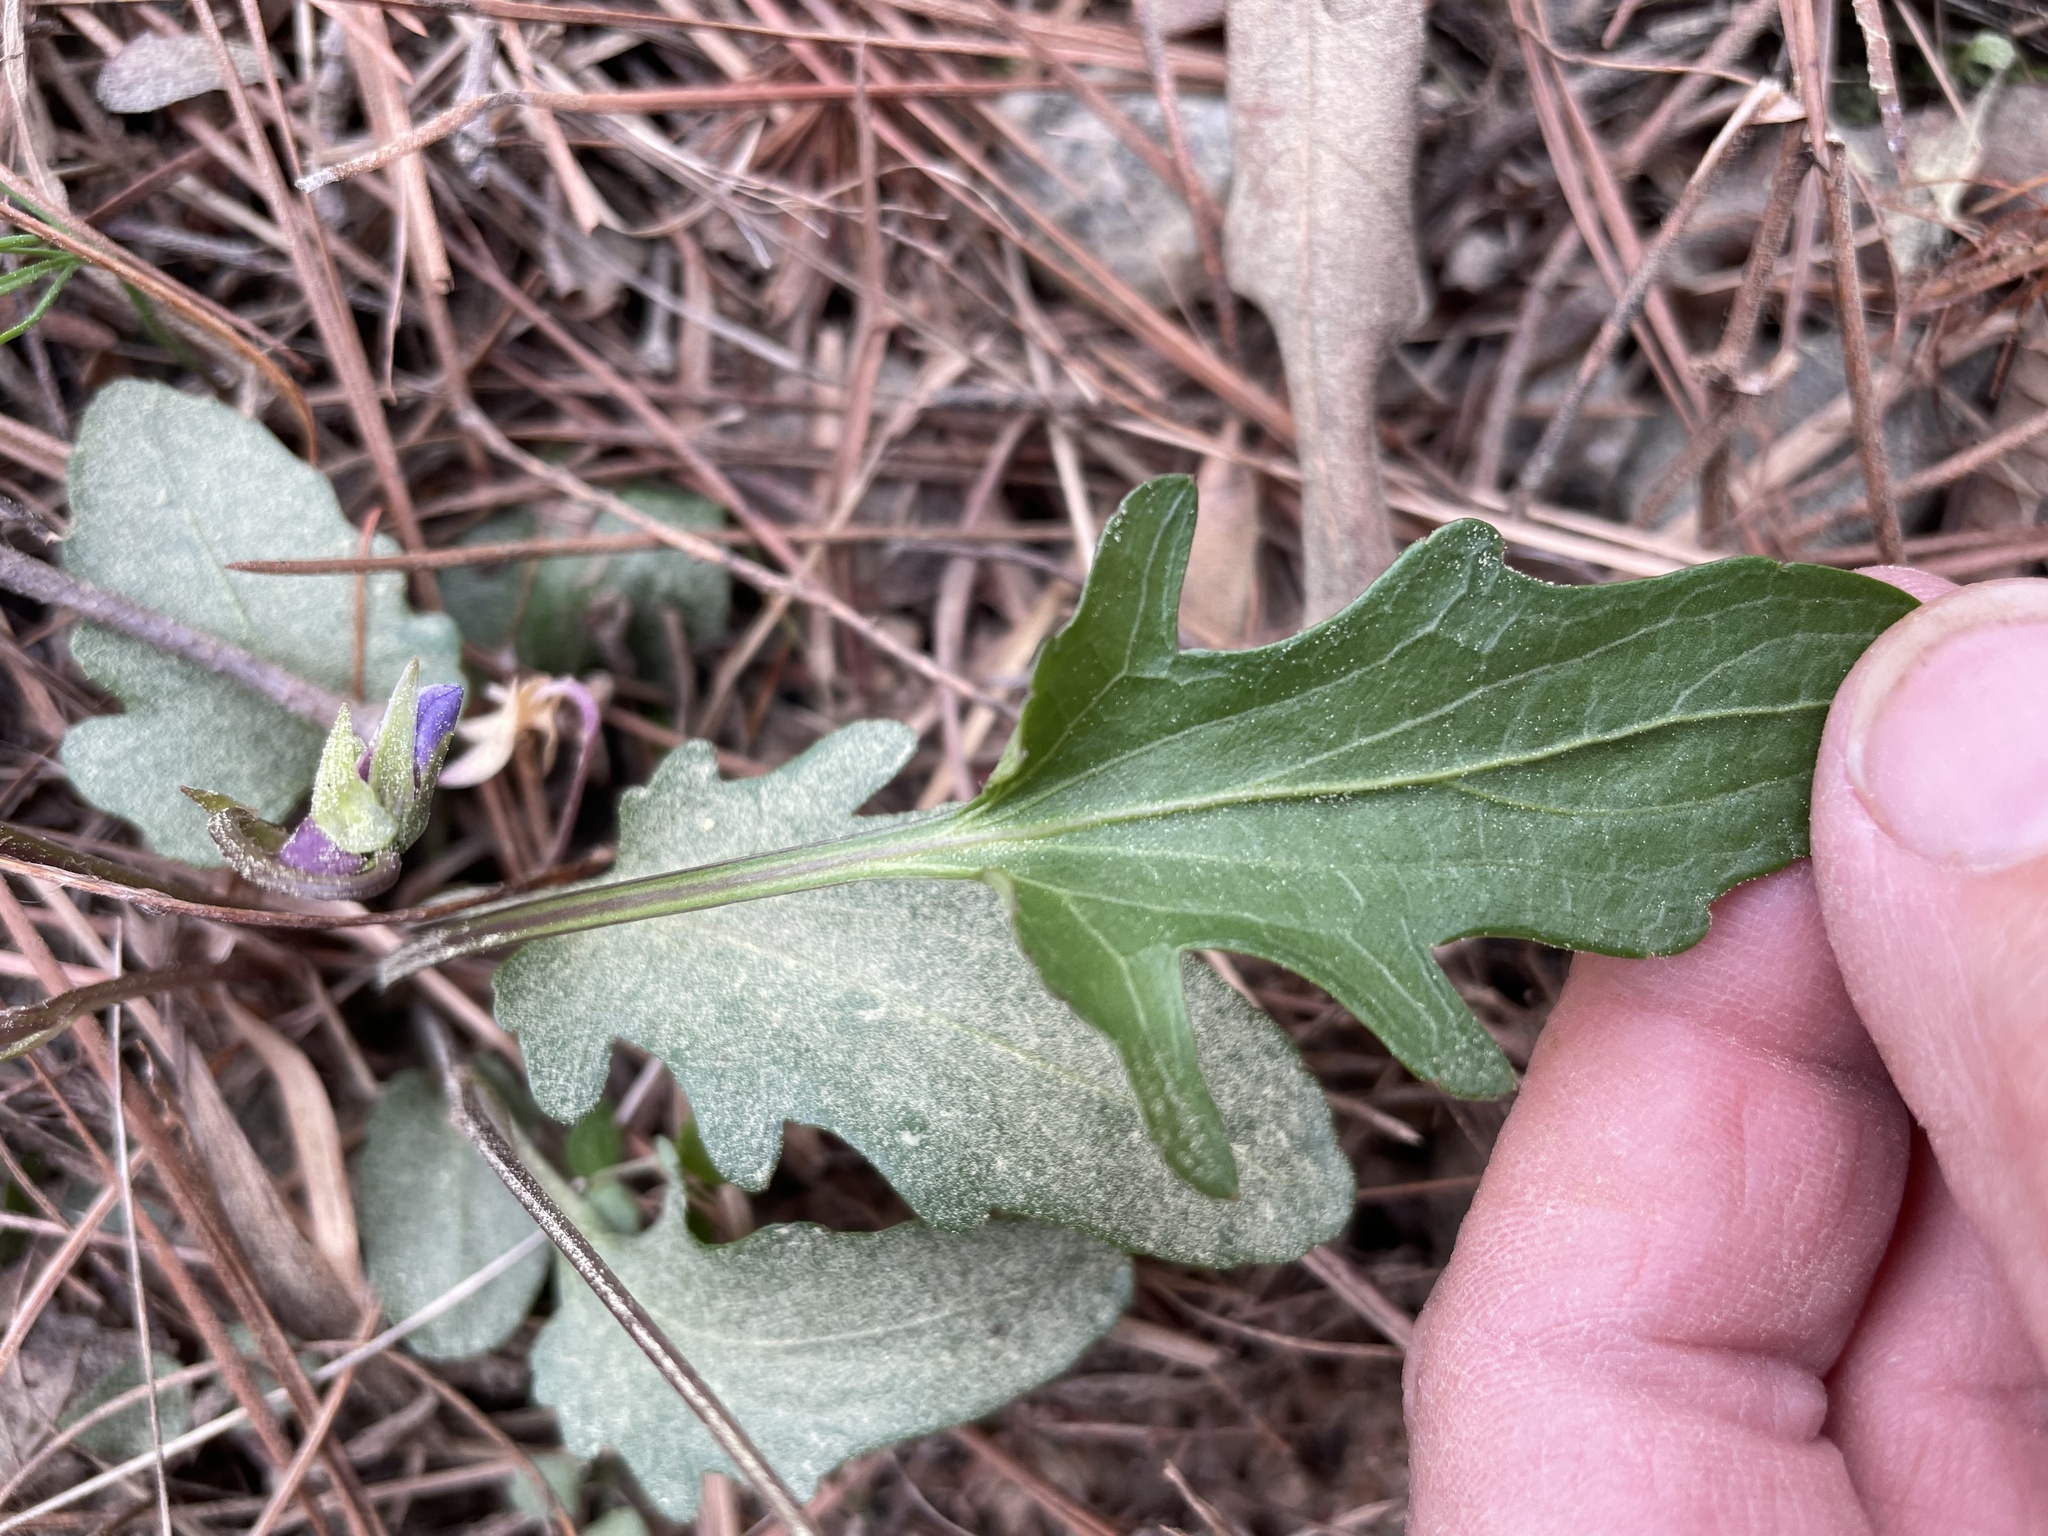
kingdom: Plantae
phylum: Tracheophyta
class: Magnoliopsida
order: Malpighiales
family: Violaceae
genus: Viola
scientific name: Viola emarginata
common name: Triangle-leaved violet
